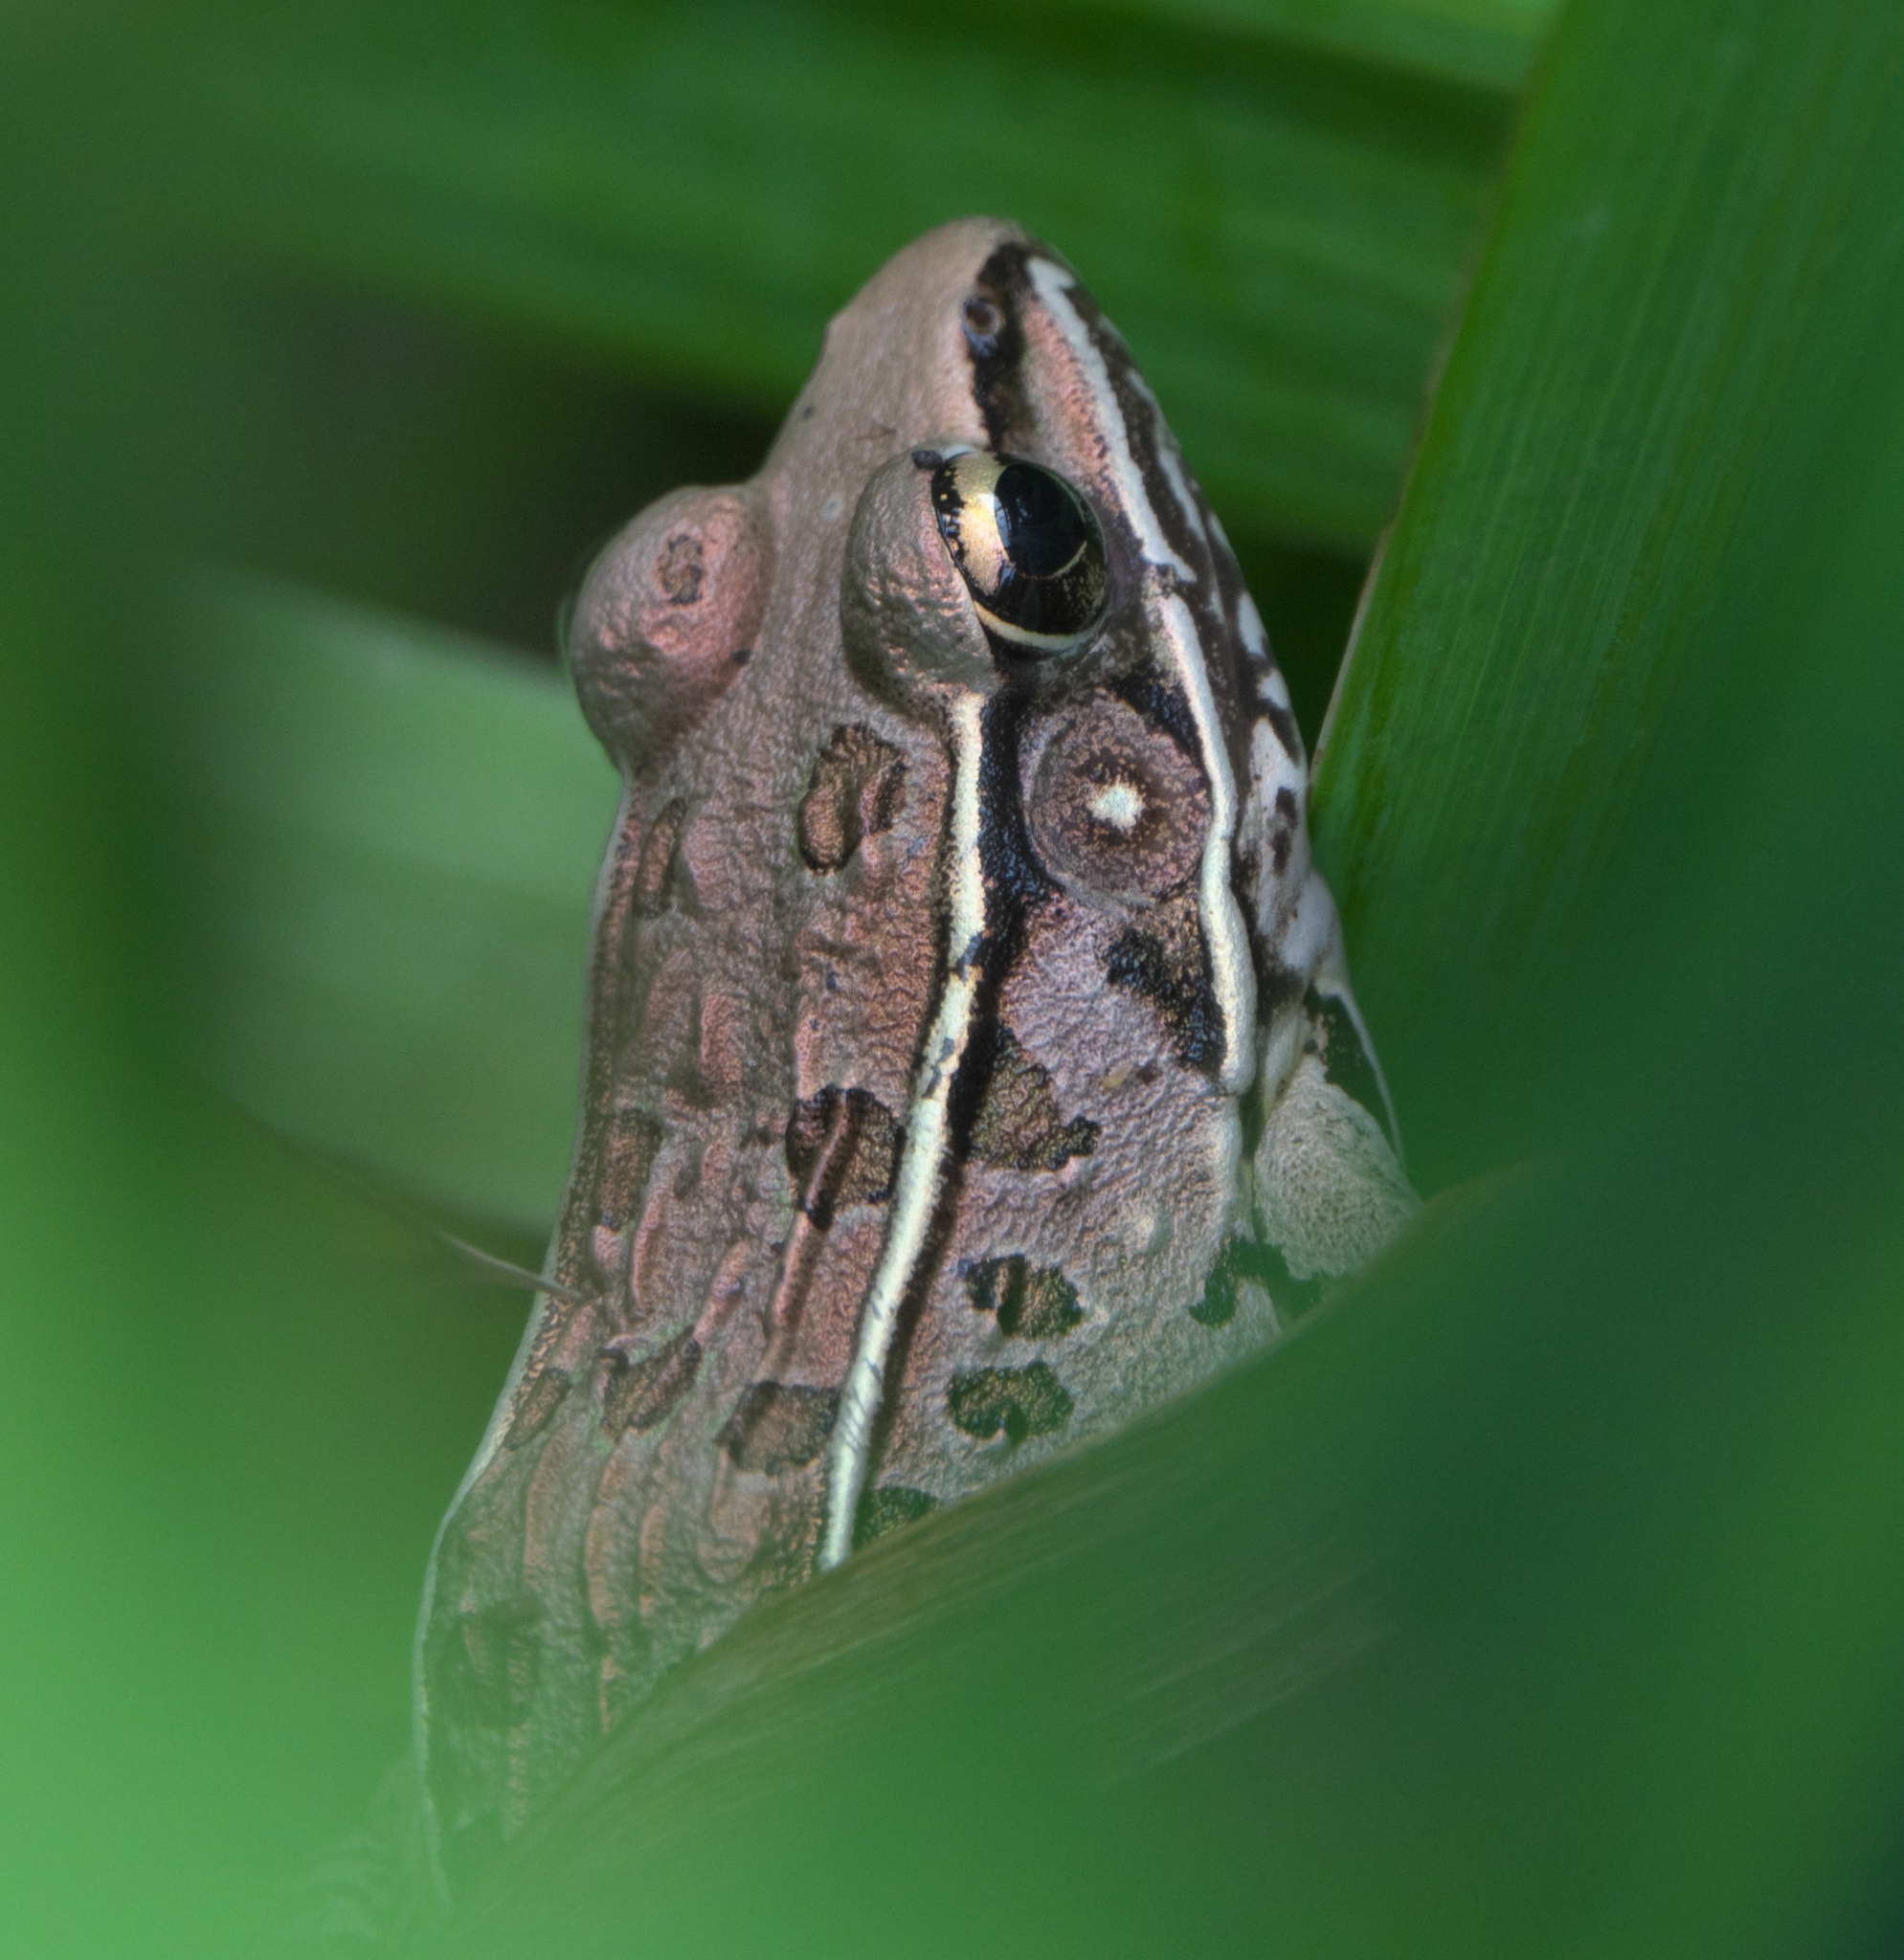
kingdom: Animalia
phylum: Chordata
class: Amphibia
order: Anura
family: Ranidae
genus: Lithobates
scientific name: Lithobates sphenocephalus
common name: Southern leopard frog
